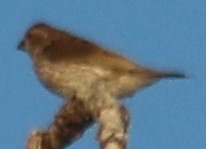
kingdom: Animalia
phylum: Chordata
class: Aves
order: Passeriformes
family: Fringillidae
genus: Haemorhous
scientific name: Haemorhous purpureus
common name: Purple finch
